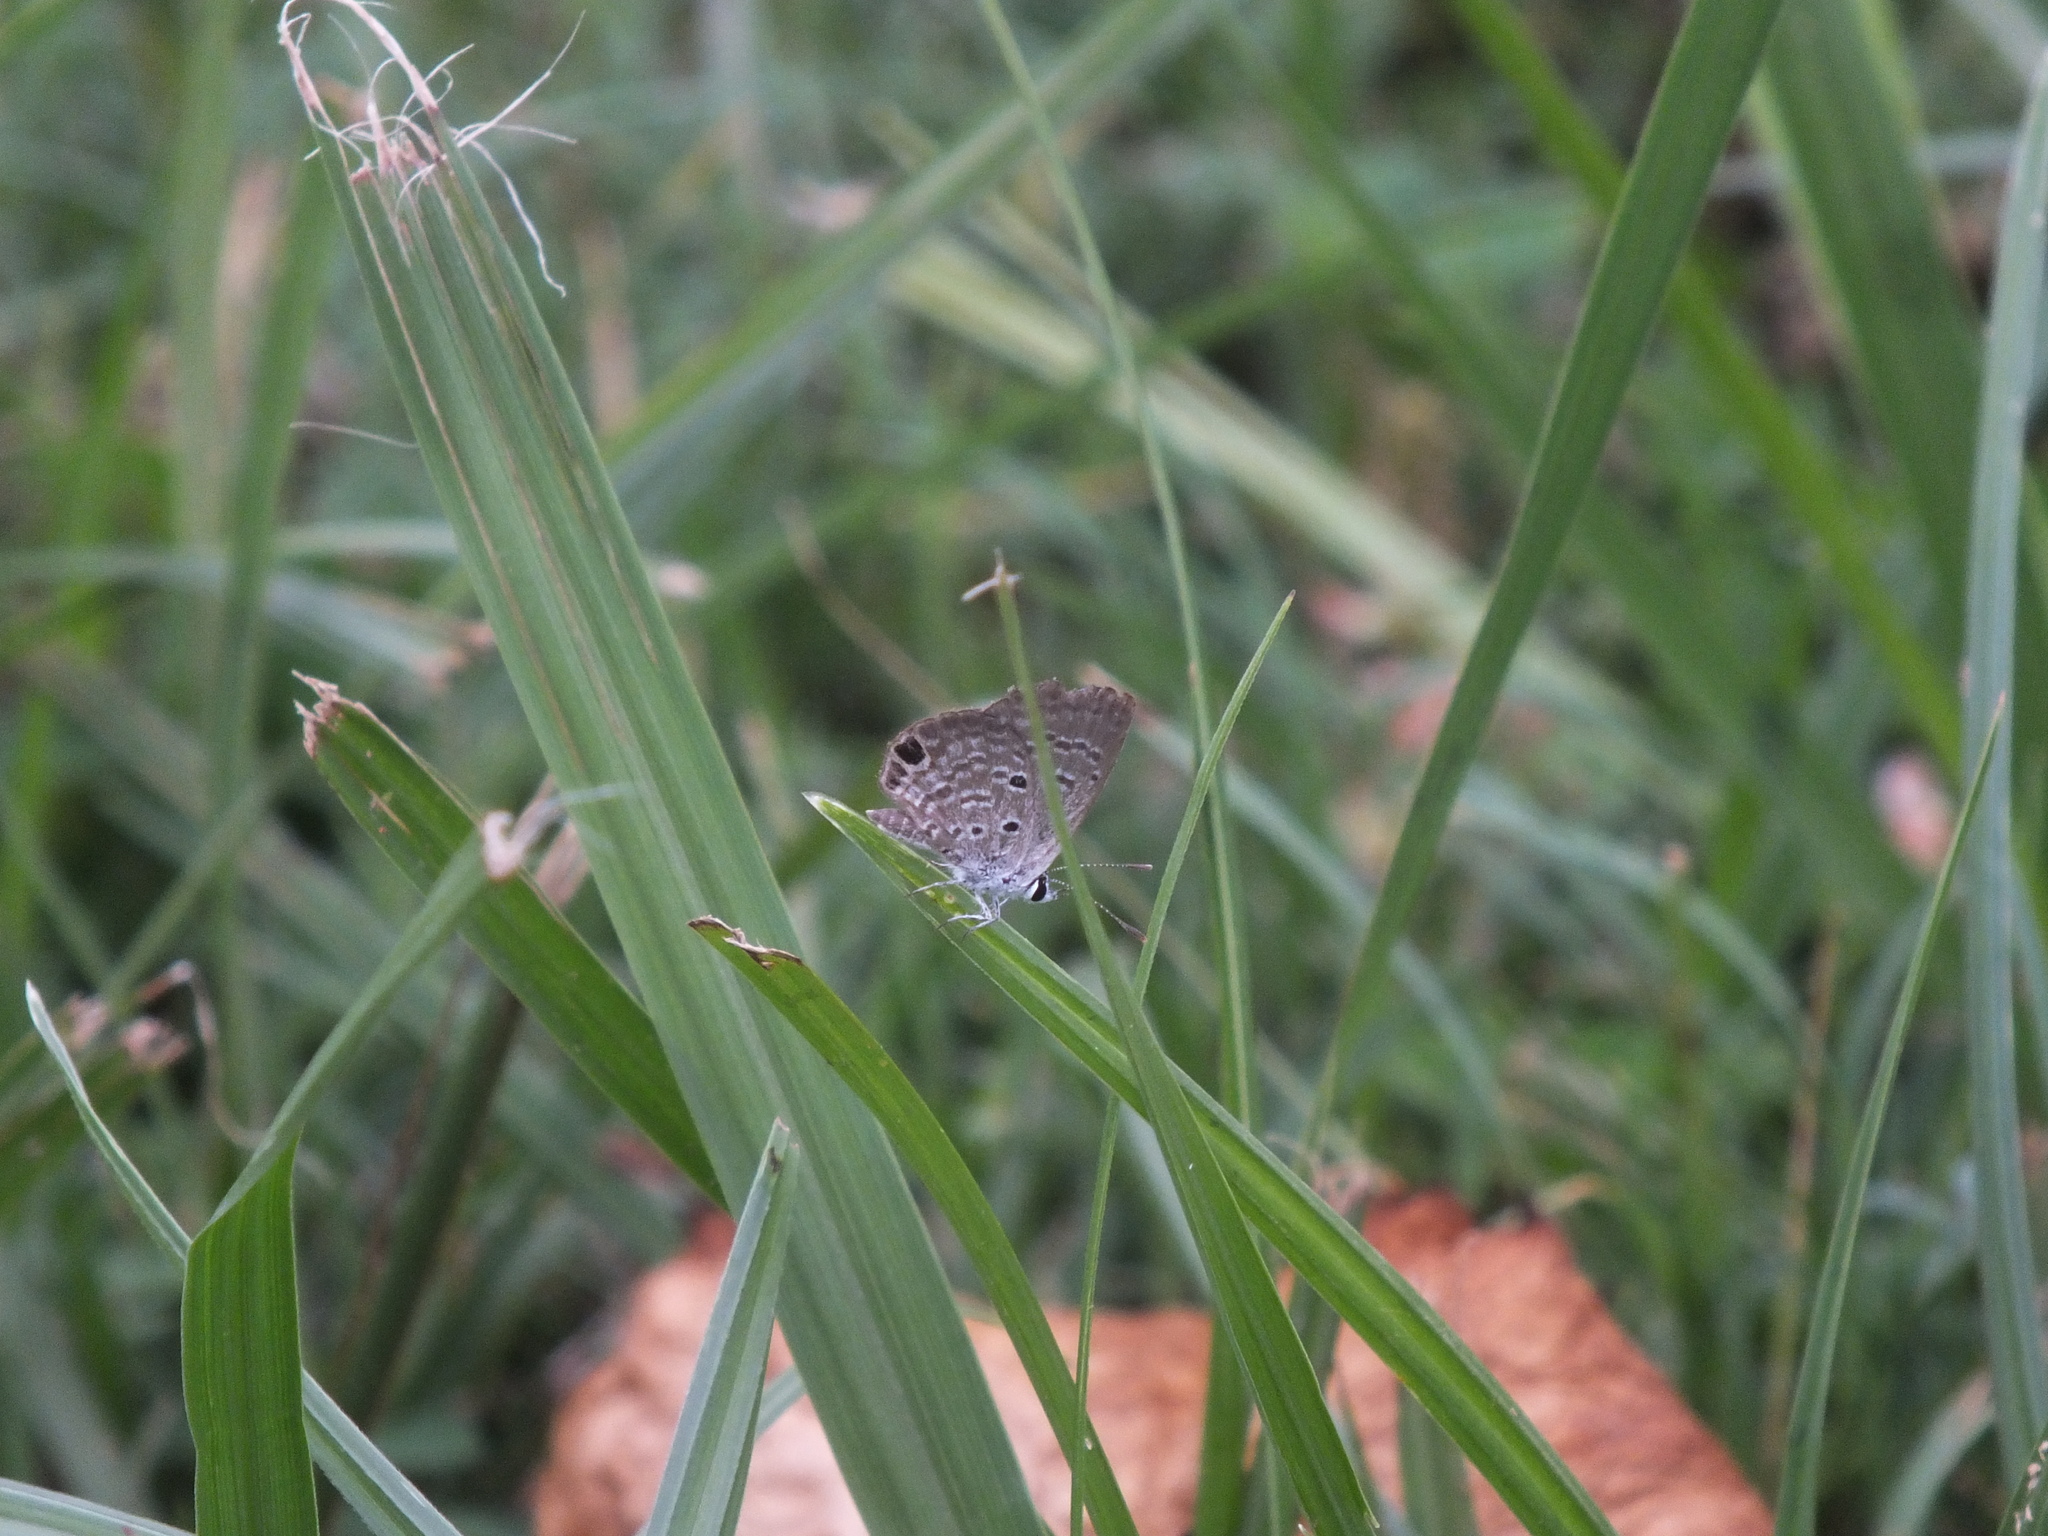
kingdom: Animalia
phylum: Arthropoda
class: Insecta
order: Lepidoptera
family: Lycaenidae
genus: Hemiargus
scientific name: Hemiargus ceraunus
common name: Ceraunus blue
